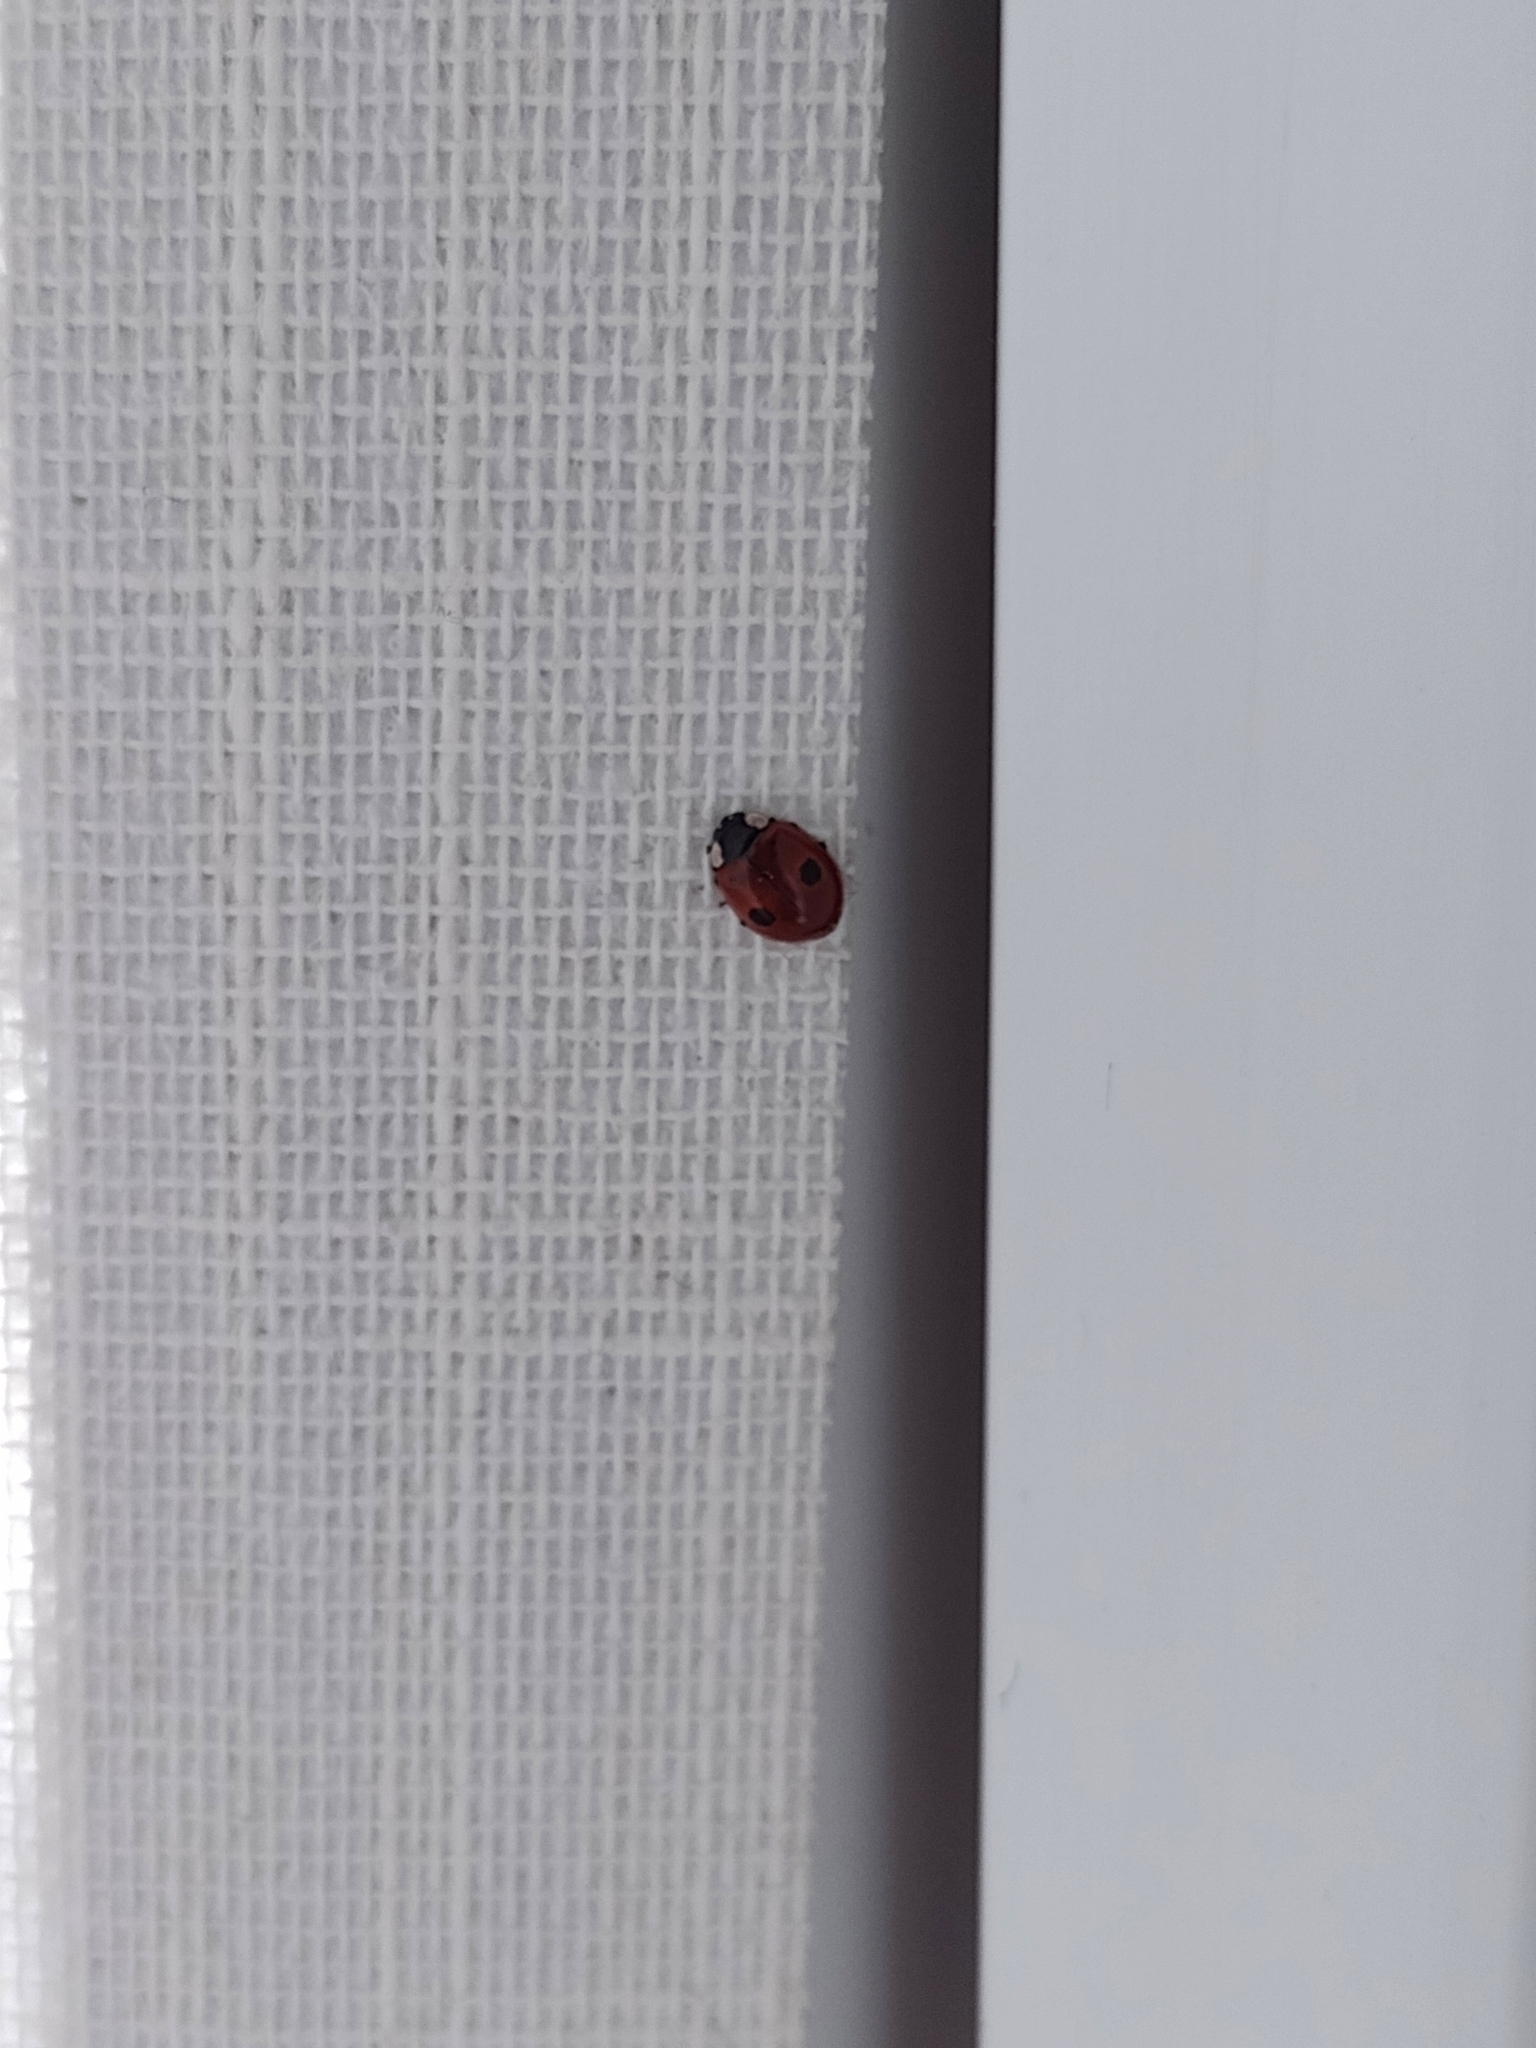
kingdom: Animalia
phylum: Arthropoda
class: Insecta
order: Coleoptera
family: Coccinellidae
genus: Adalia
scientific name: Adalia bipunctata
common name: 2-spot ladybird
